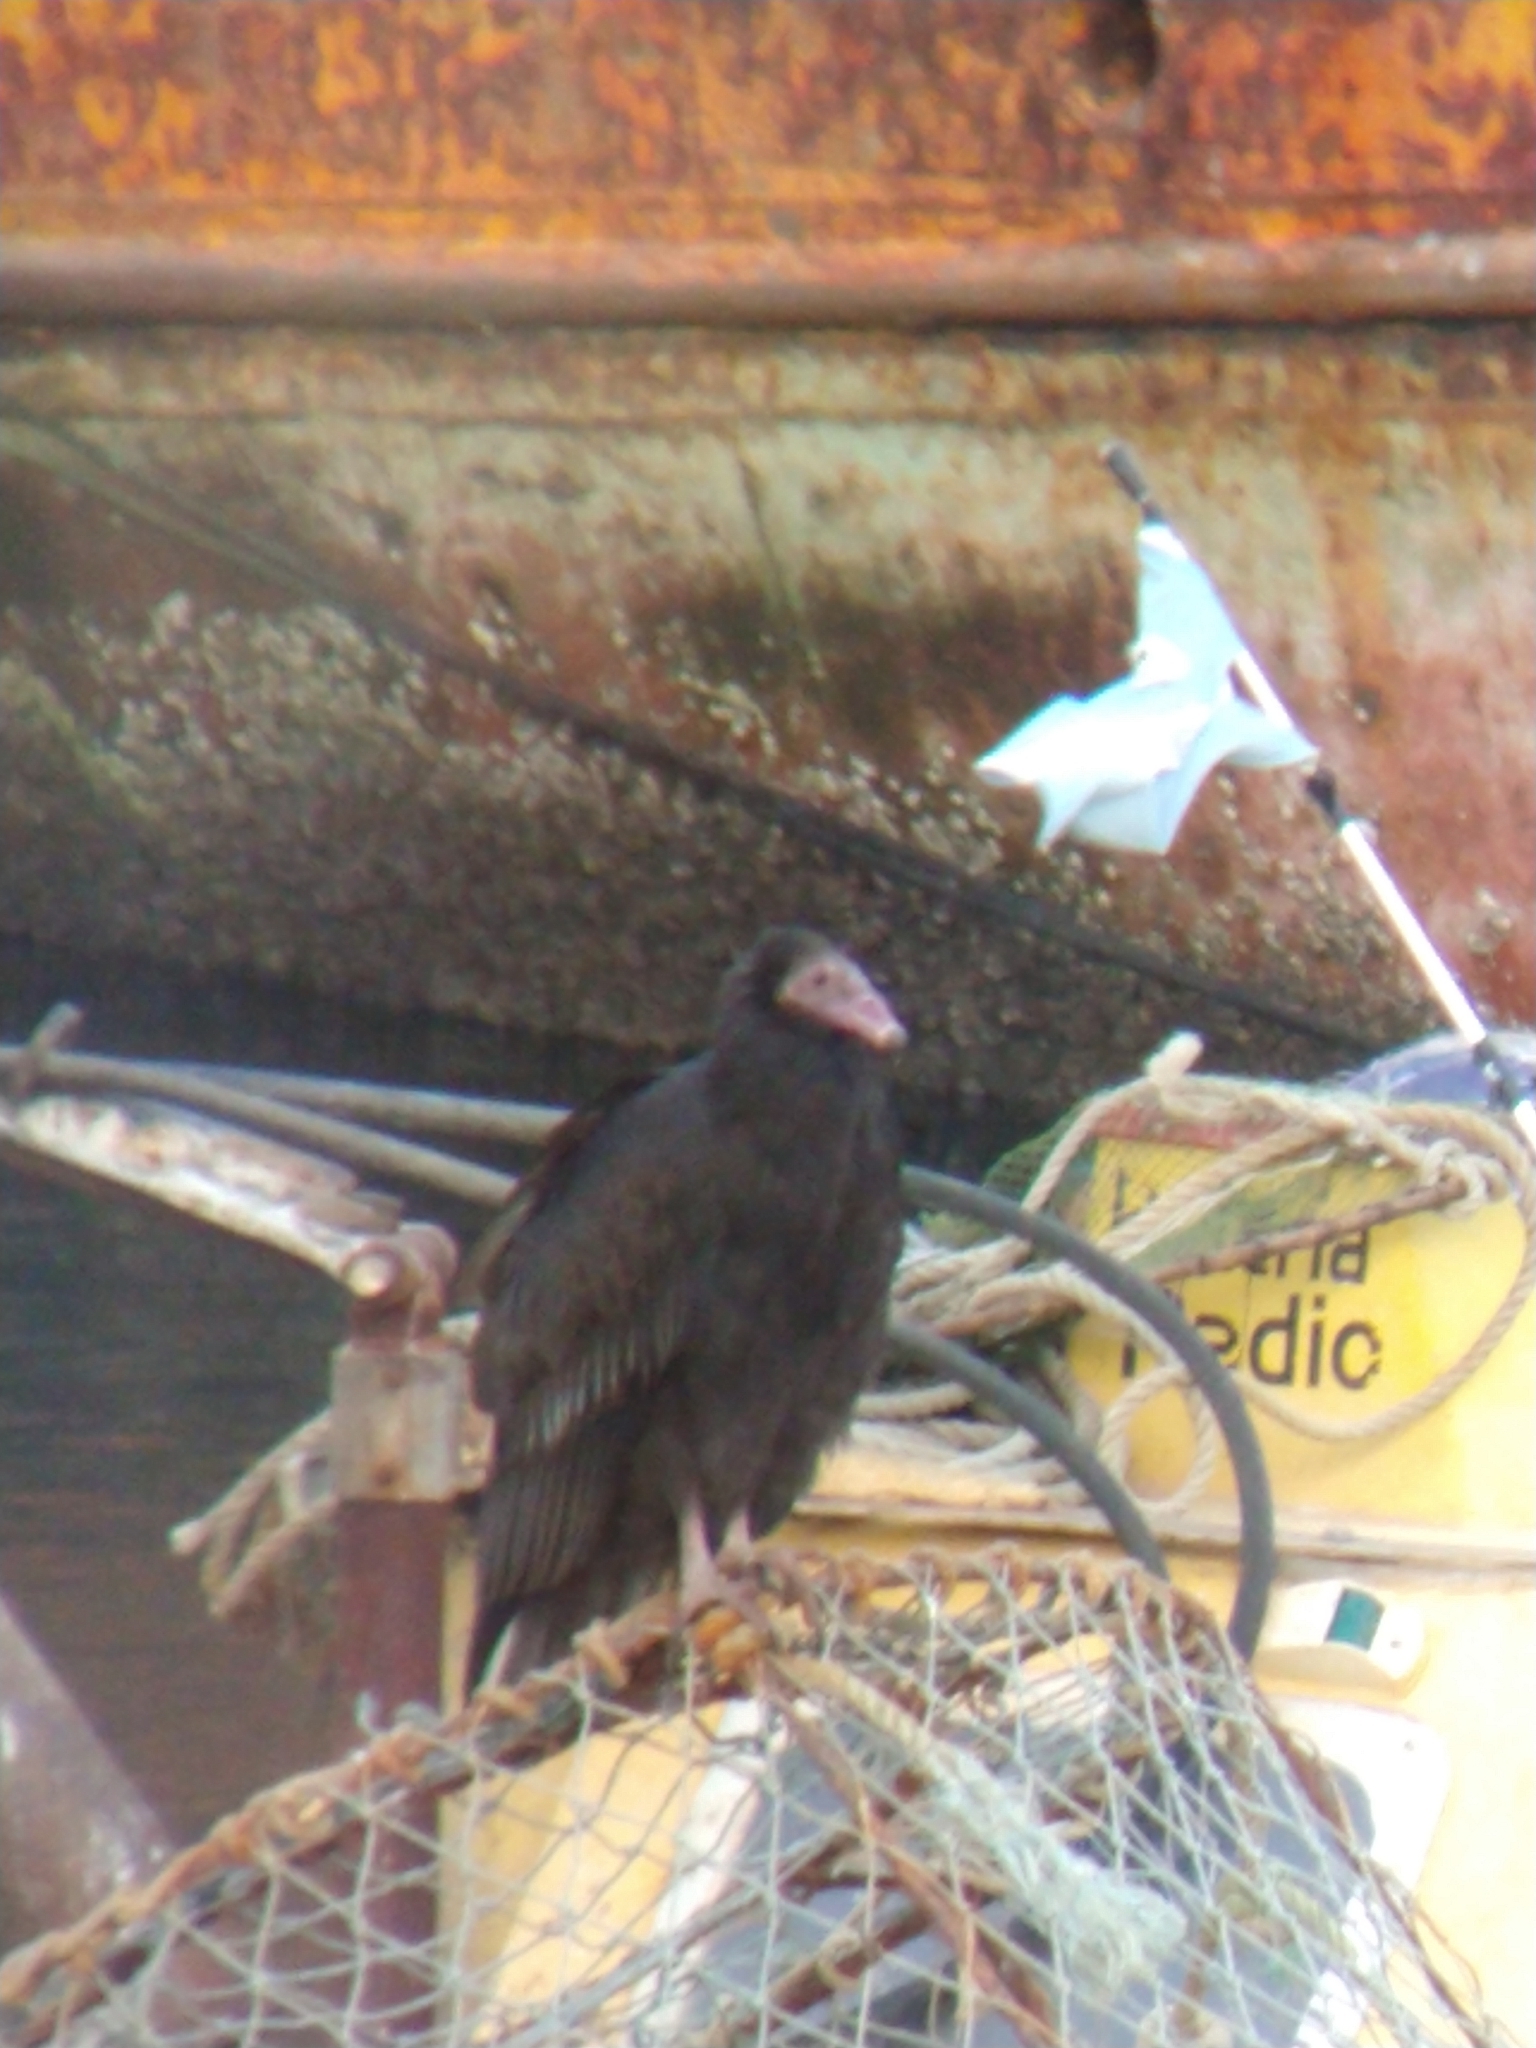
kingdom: Animalia
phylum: Chordata
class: Aves
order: Accipitriformes
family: Cathartidae
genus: Cathartes
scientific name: Cathartes aura
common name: Turkey vulture
